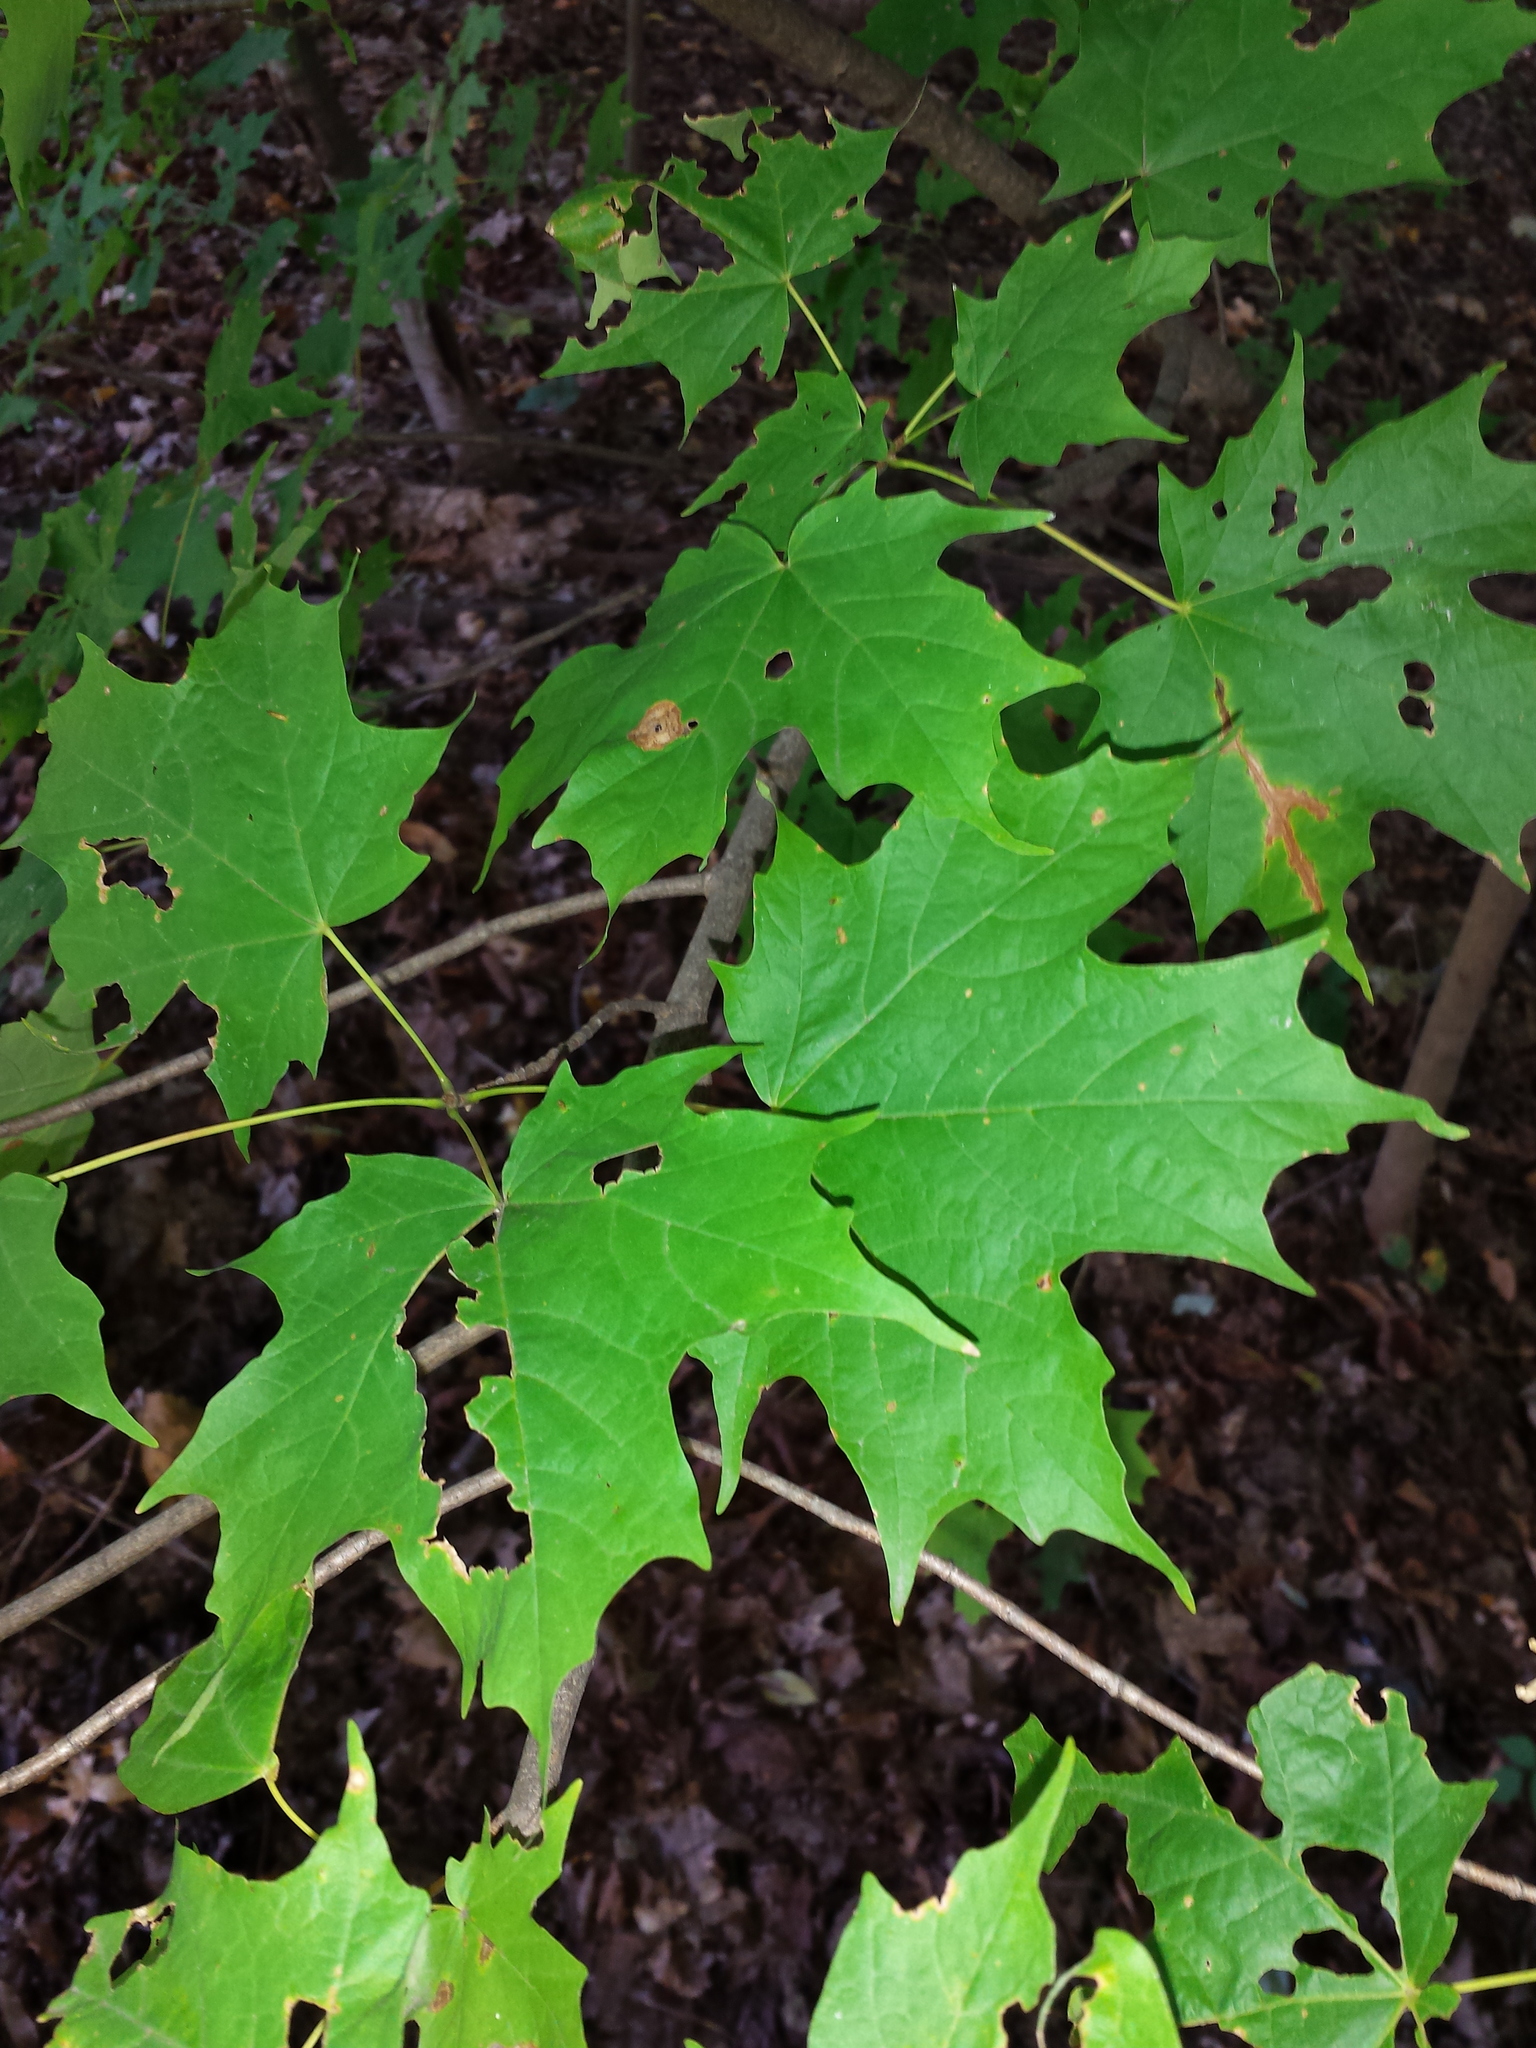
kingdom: Plantae
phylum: Tracheophyta
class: Magnoliopsida
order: Sapindales
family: Sapindaceae
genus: Acer
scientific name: Acer saccharum
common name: Sugar maple
